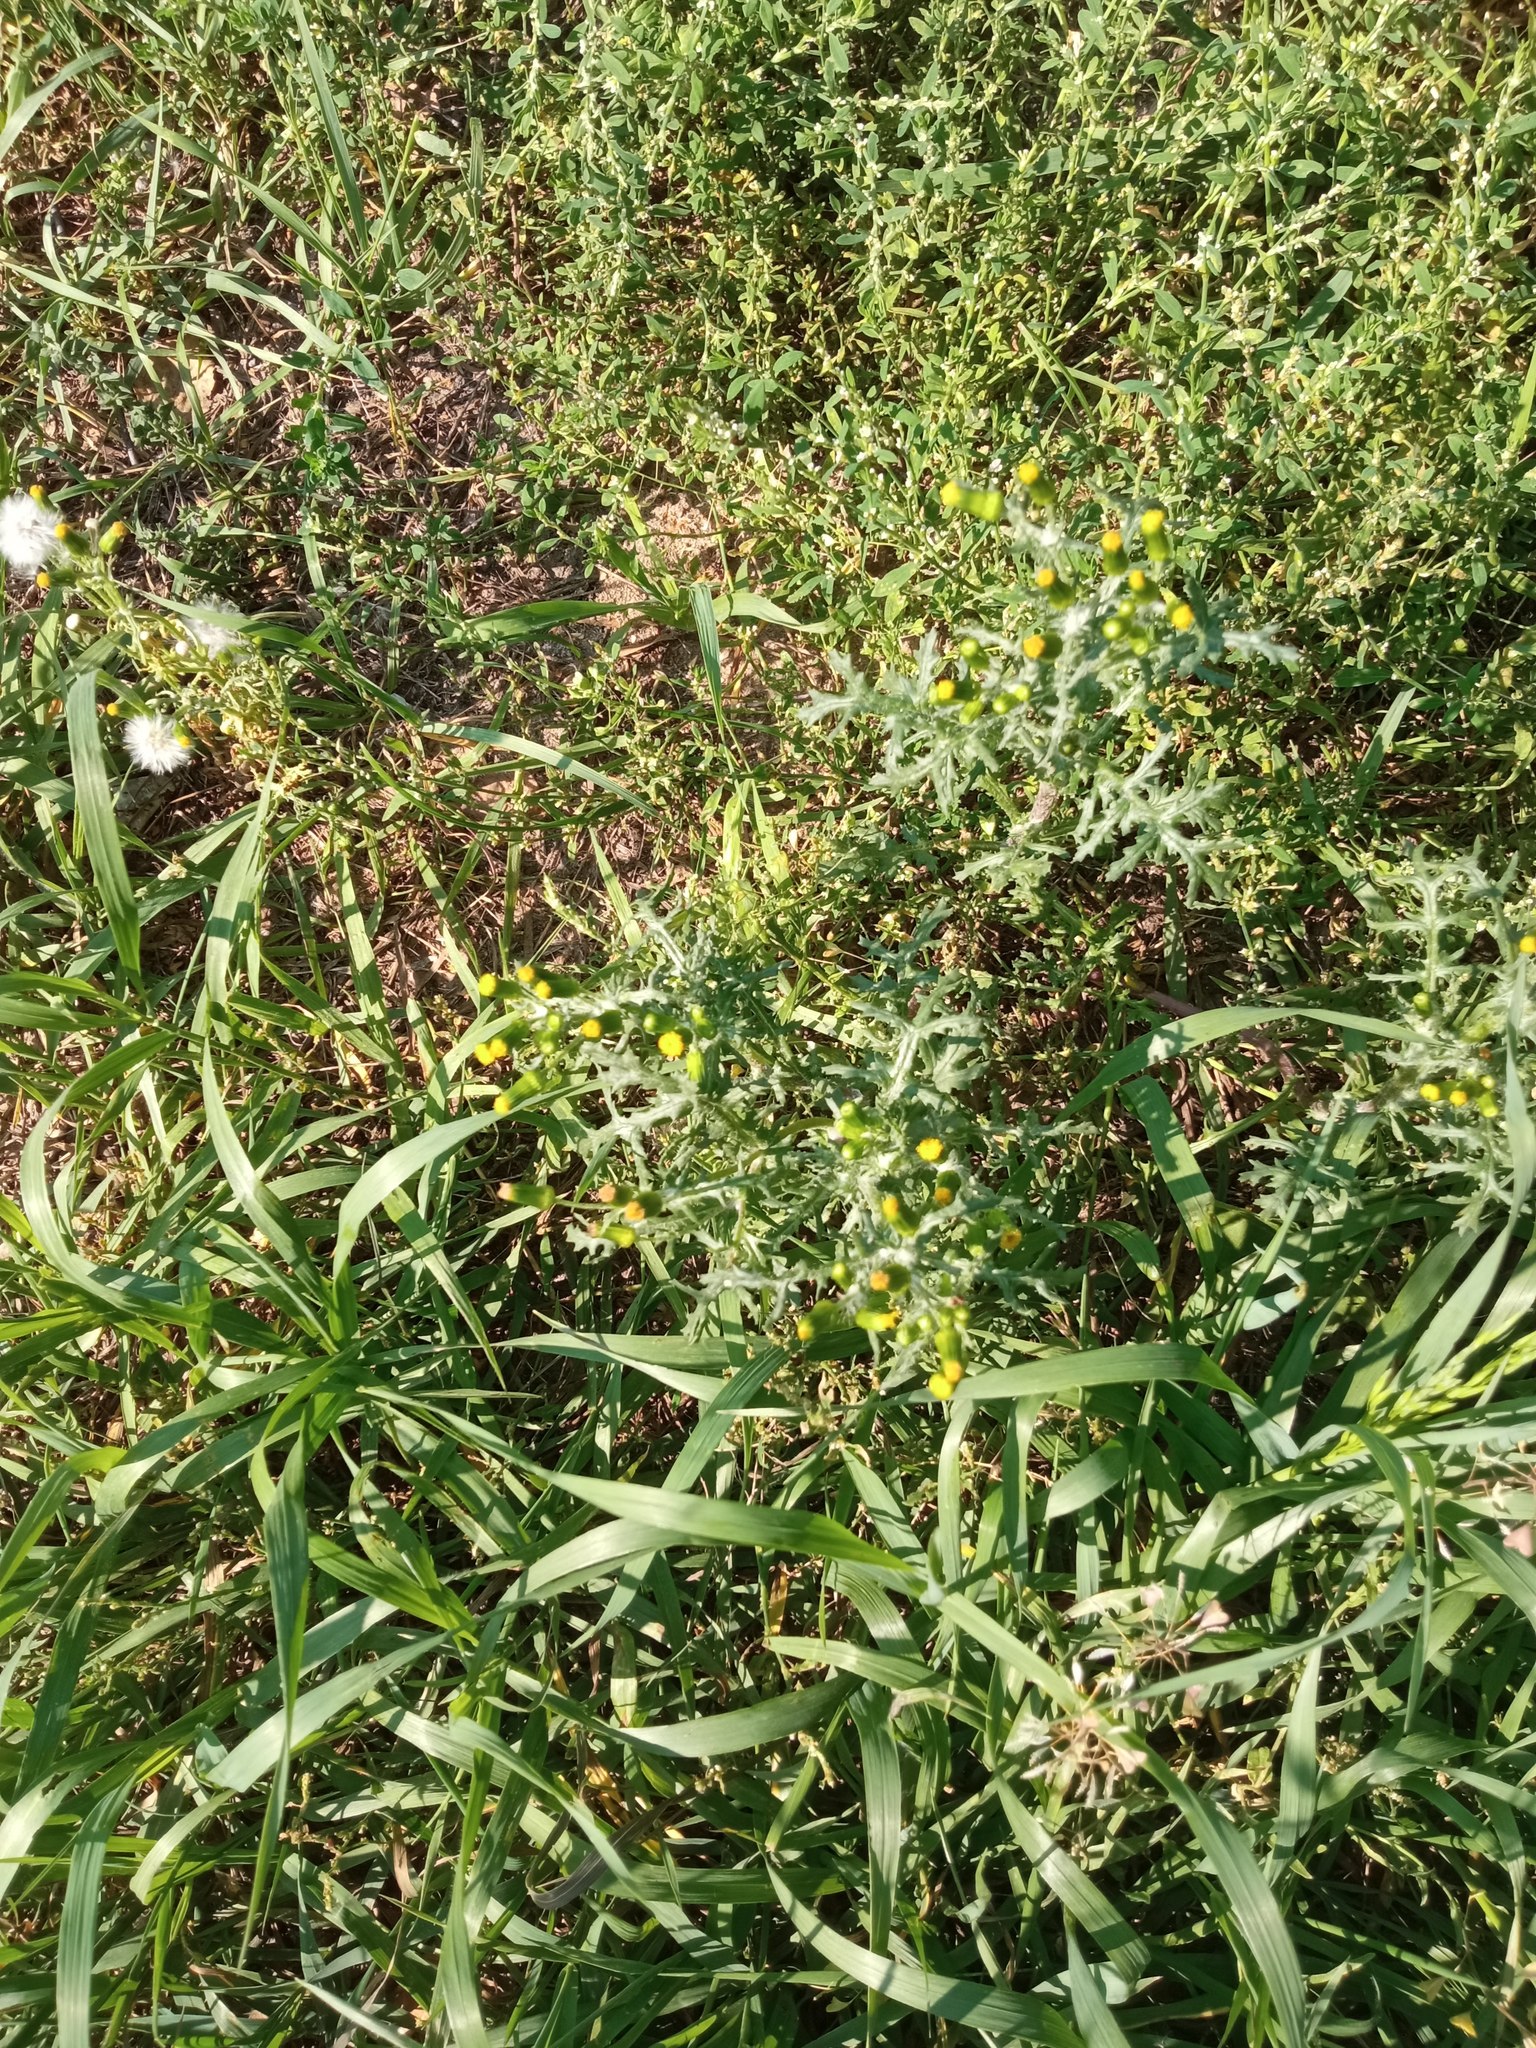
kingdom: Plantae
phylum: Tracheophyta
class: Magnoliopsida
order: Asterales
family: Asteraceae
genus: Senecio
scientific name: Senecio vulgaris
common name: Old-man-in-the-spring
